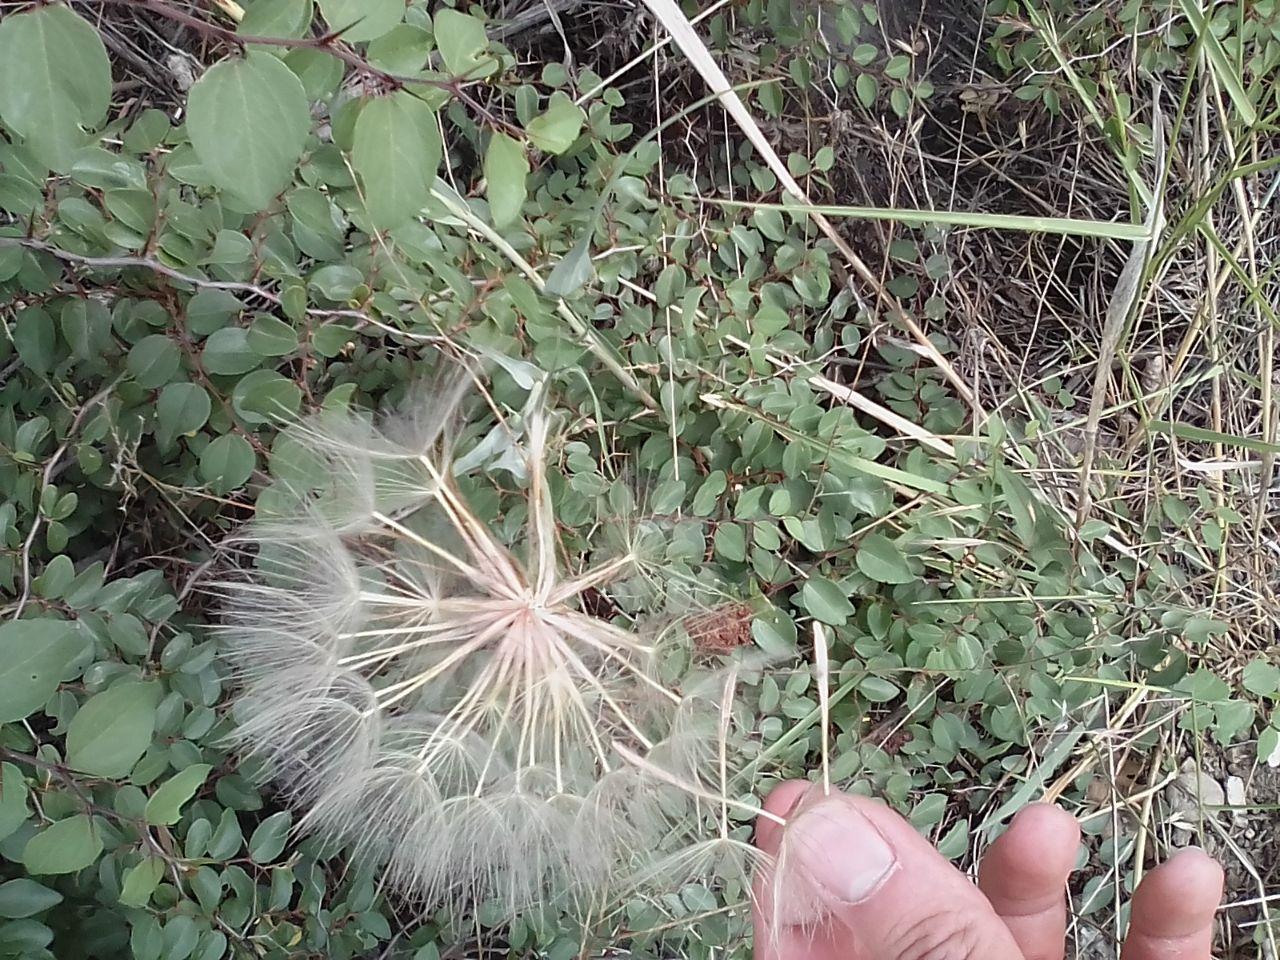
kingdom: Plantae
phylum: Tracheophyta
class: Magnoliopsida
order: Asterales
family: Asteraceae
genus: Tragopogon
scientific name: Tragopogon dubius
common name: Yellow salsify
